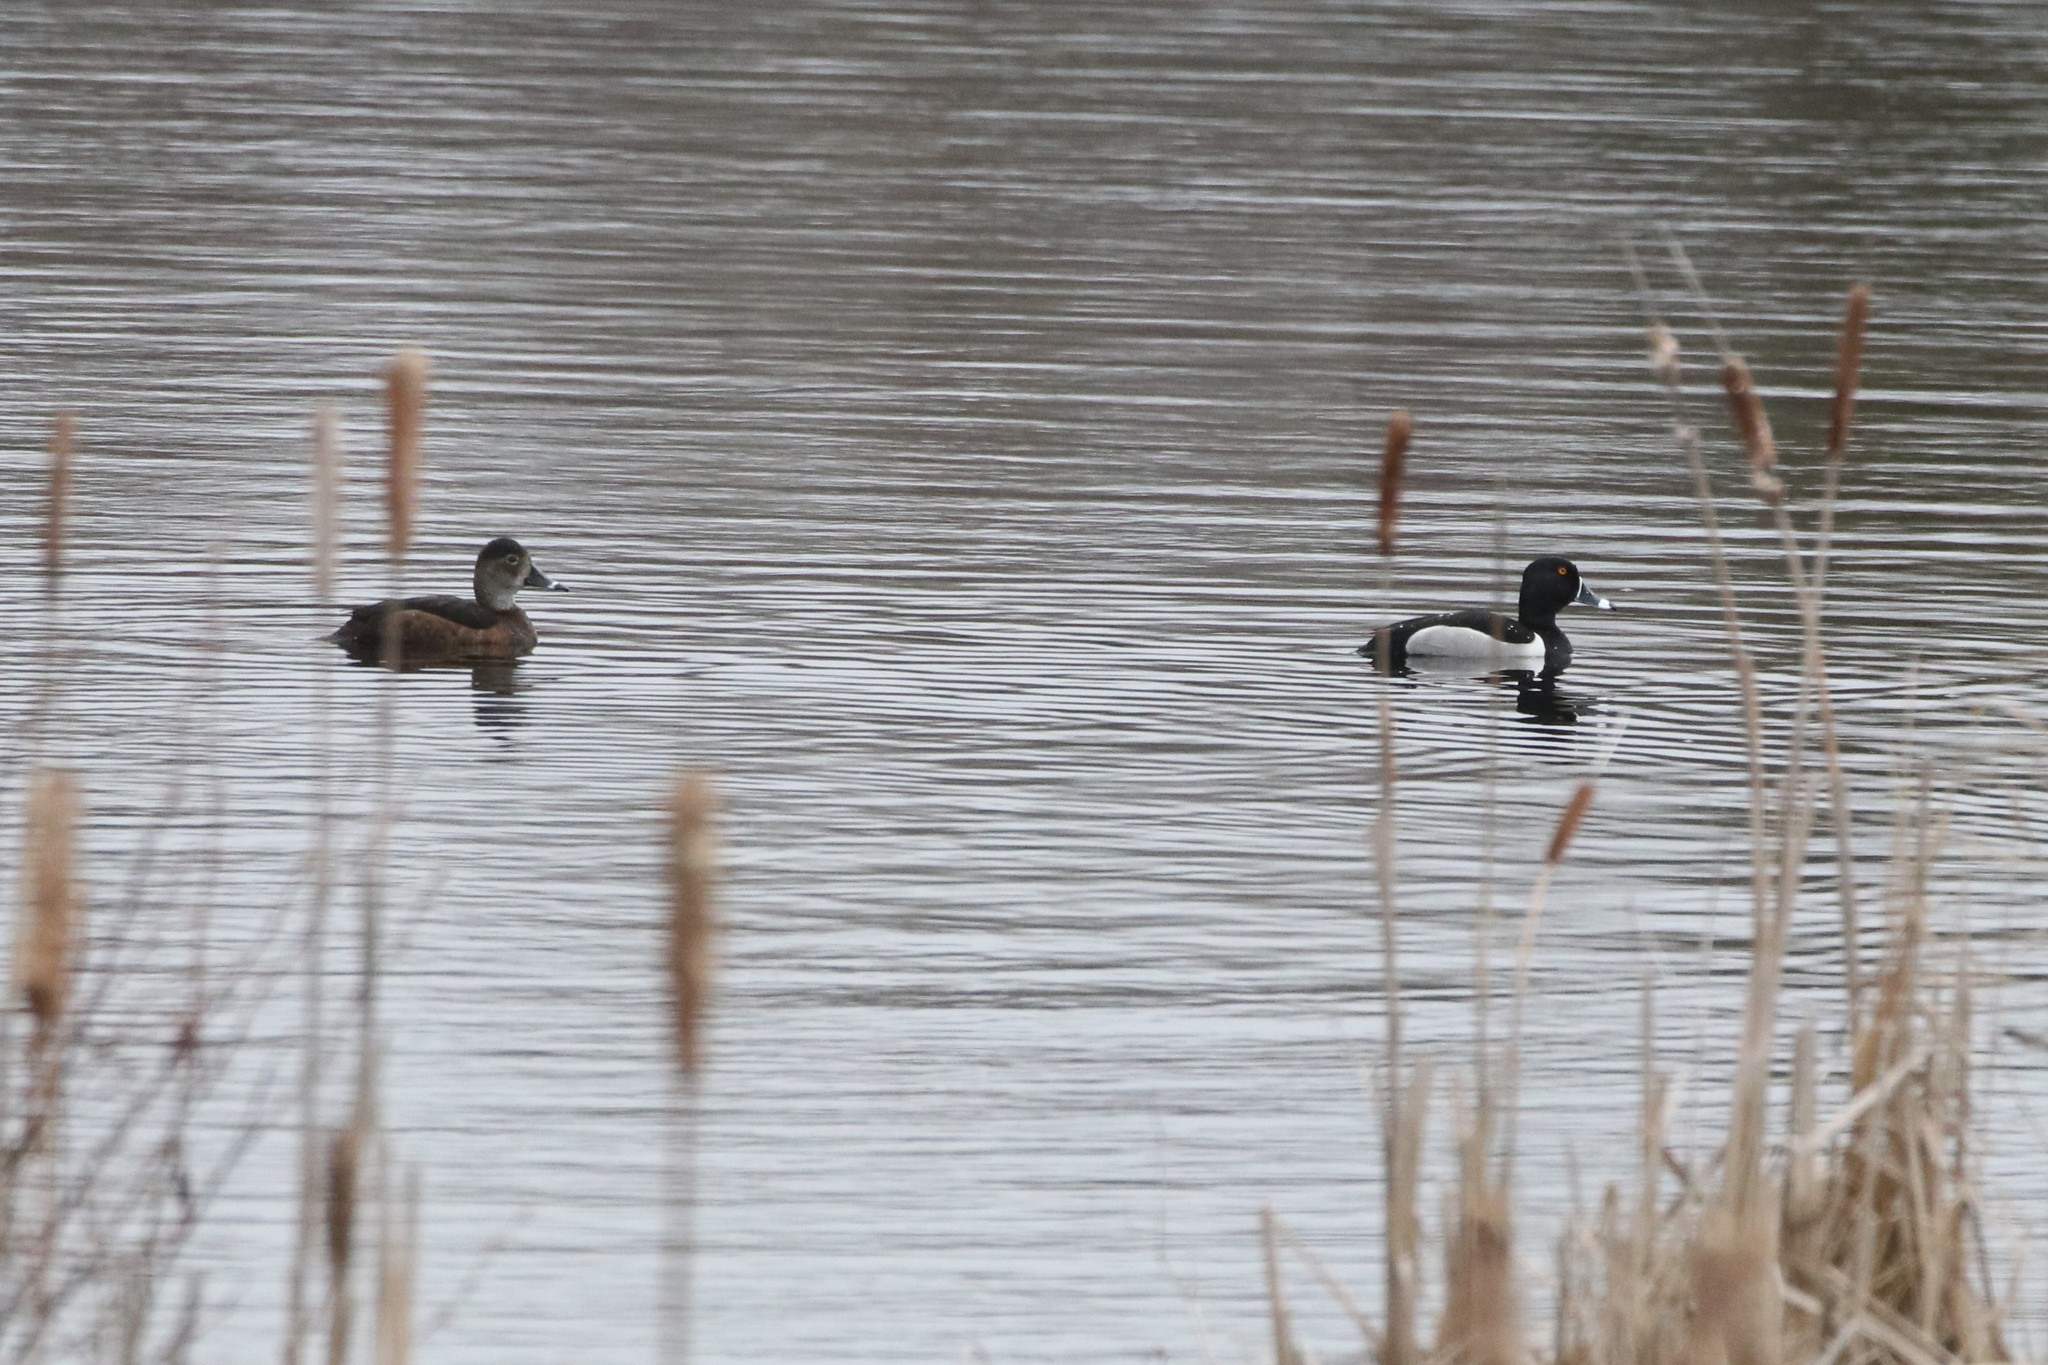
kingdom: Animalia
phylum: Chordata
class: Aves
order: Anseriformes
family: Anatidae
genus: Aythya
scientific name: Aythya collaris
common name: Ring-necked duck
